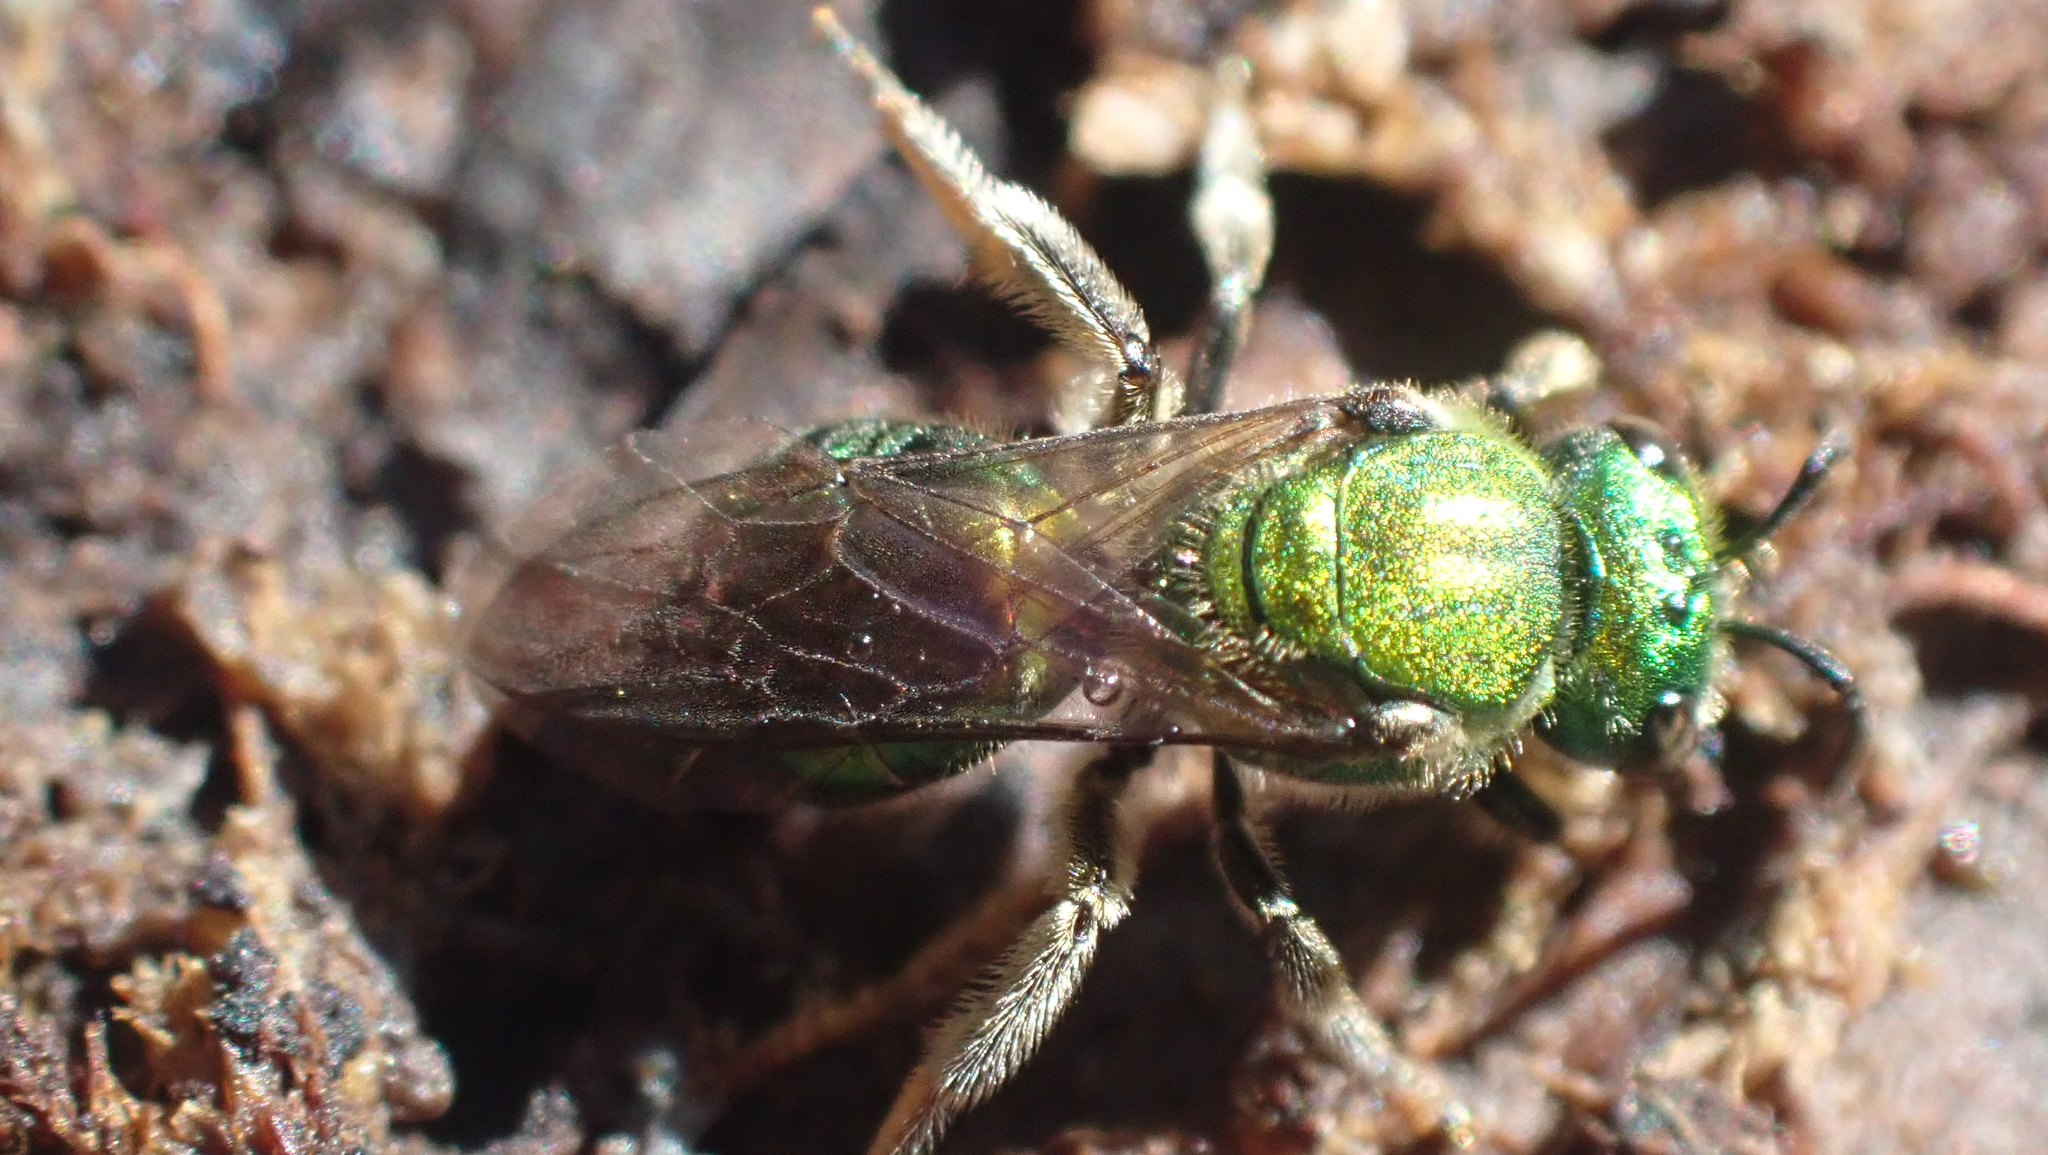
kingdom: Animalia
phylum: Arthropoda
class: Insecta
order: Hymenoptera
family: Halictidae
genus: Augochlora
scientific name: Augochlora pura
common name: Pure green sweat bee
